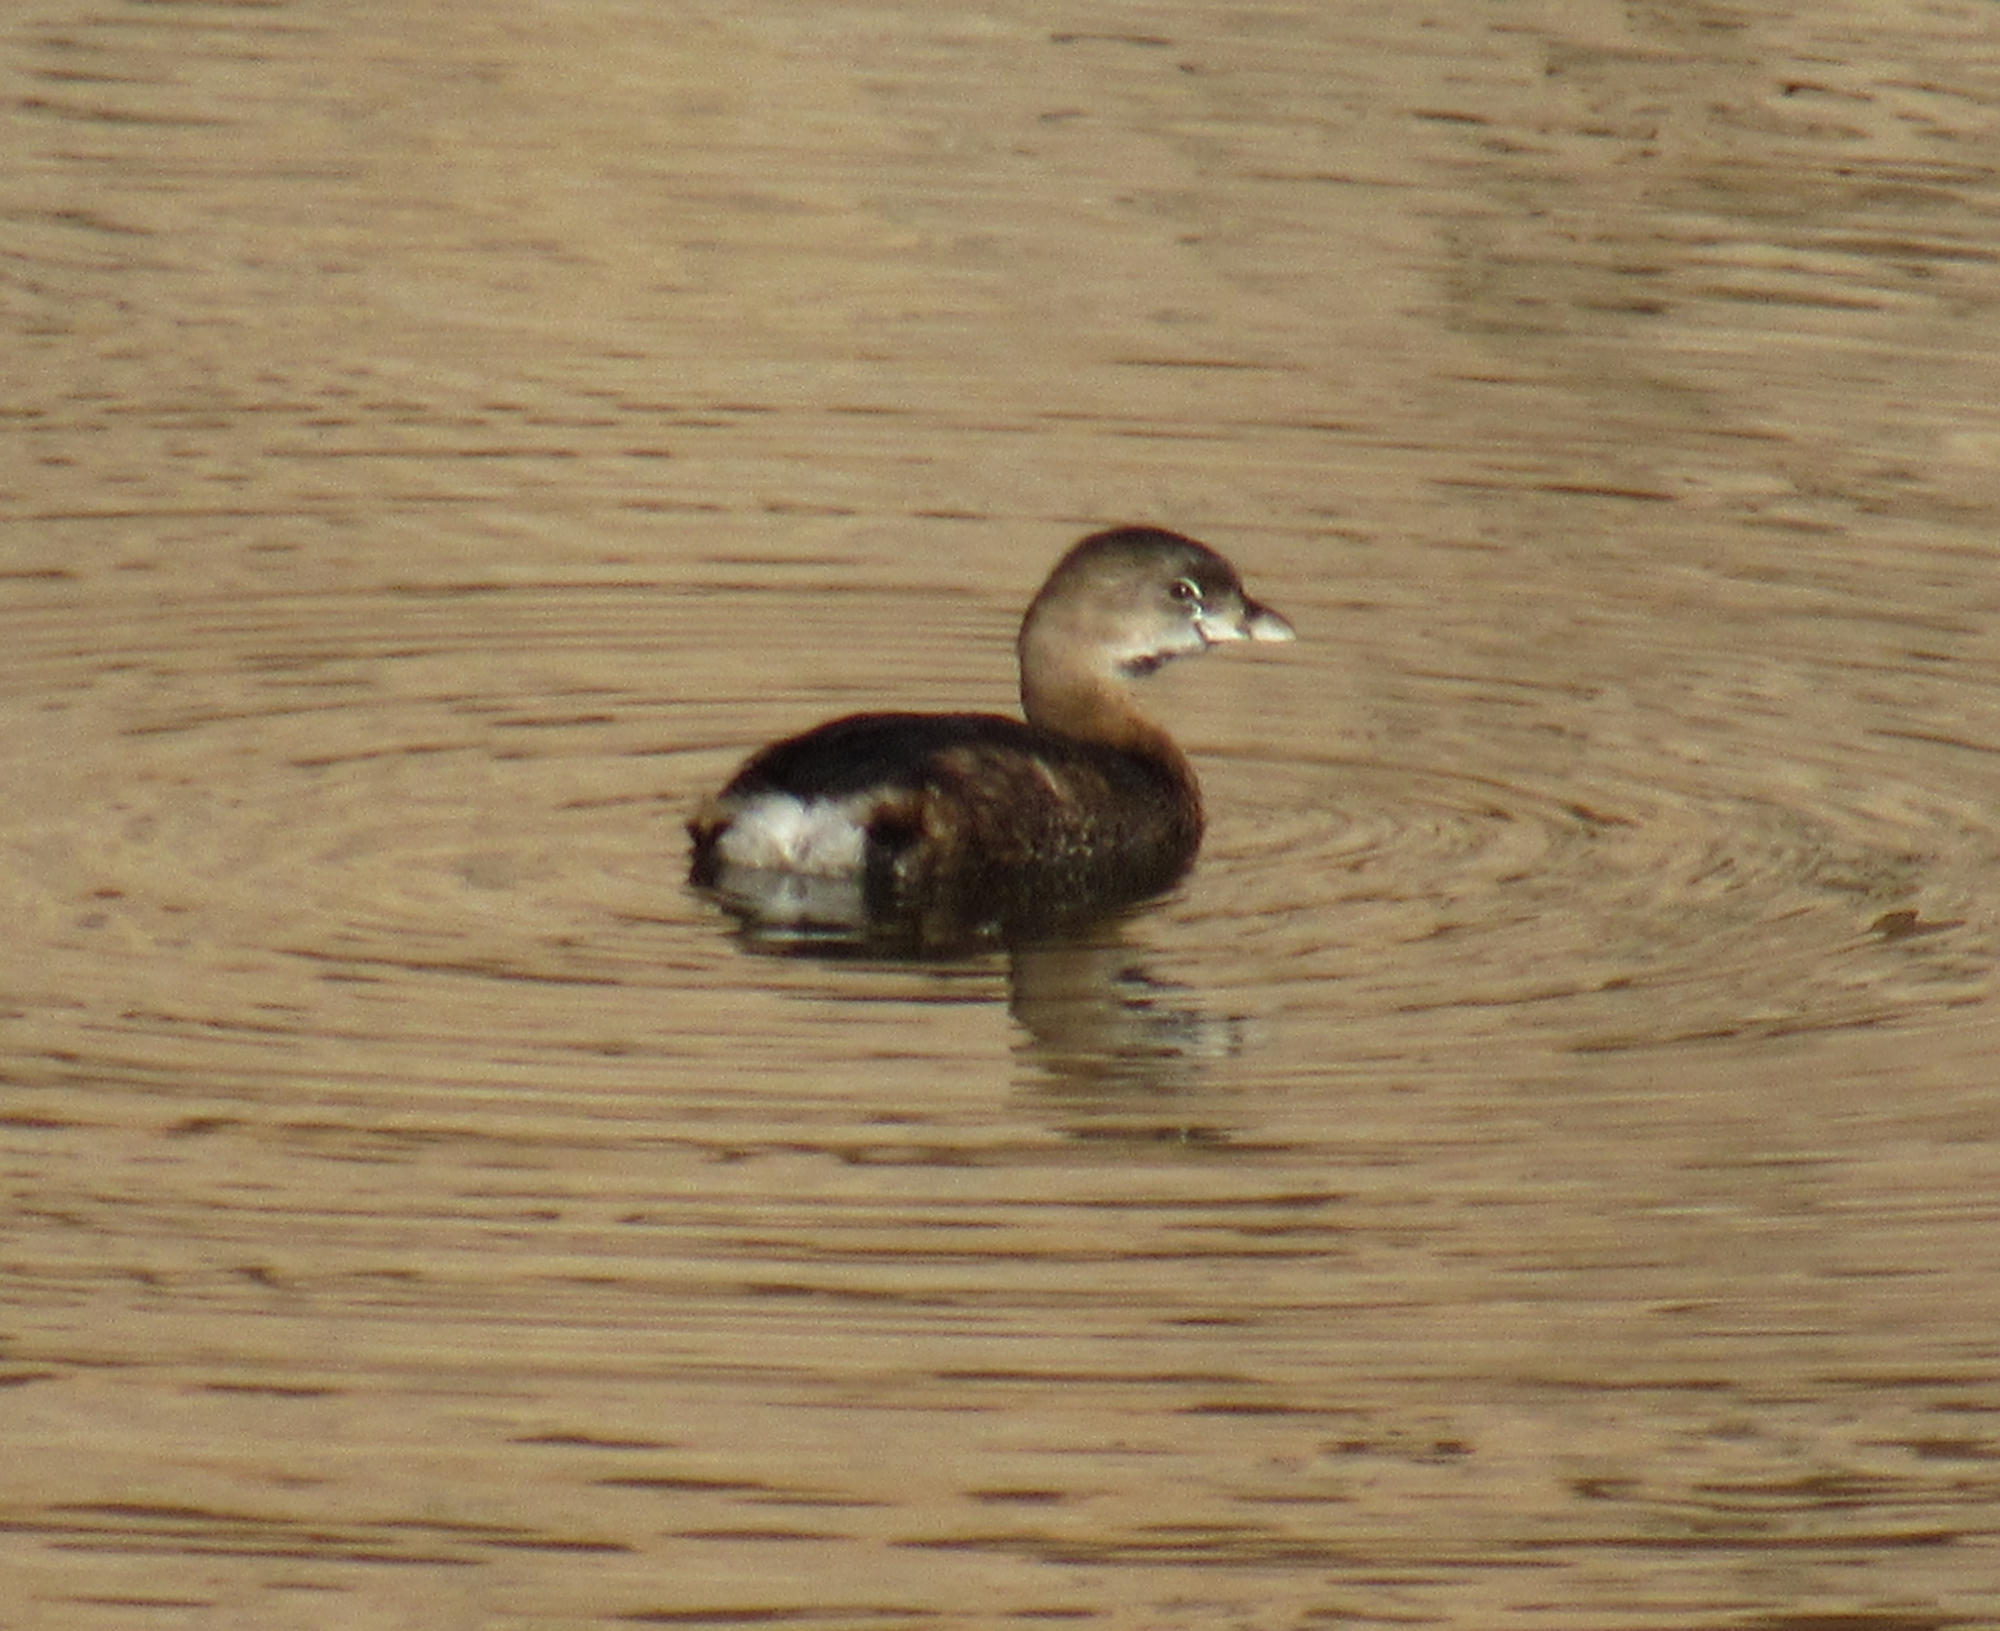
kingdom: Animalia
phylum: Chordata
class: Aves
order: Podicipediformes
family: Podicipedidae
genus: Podilymbus
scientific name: Podilymbus podiceps
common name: Pied-billed grebe
